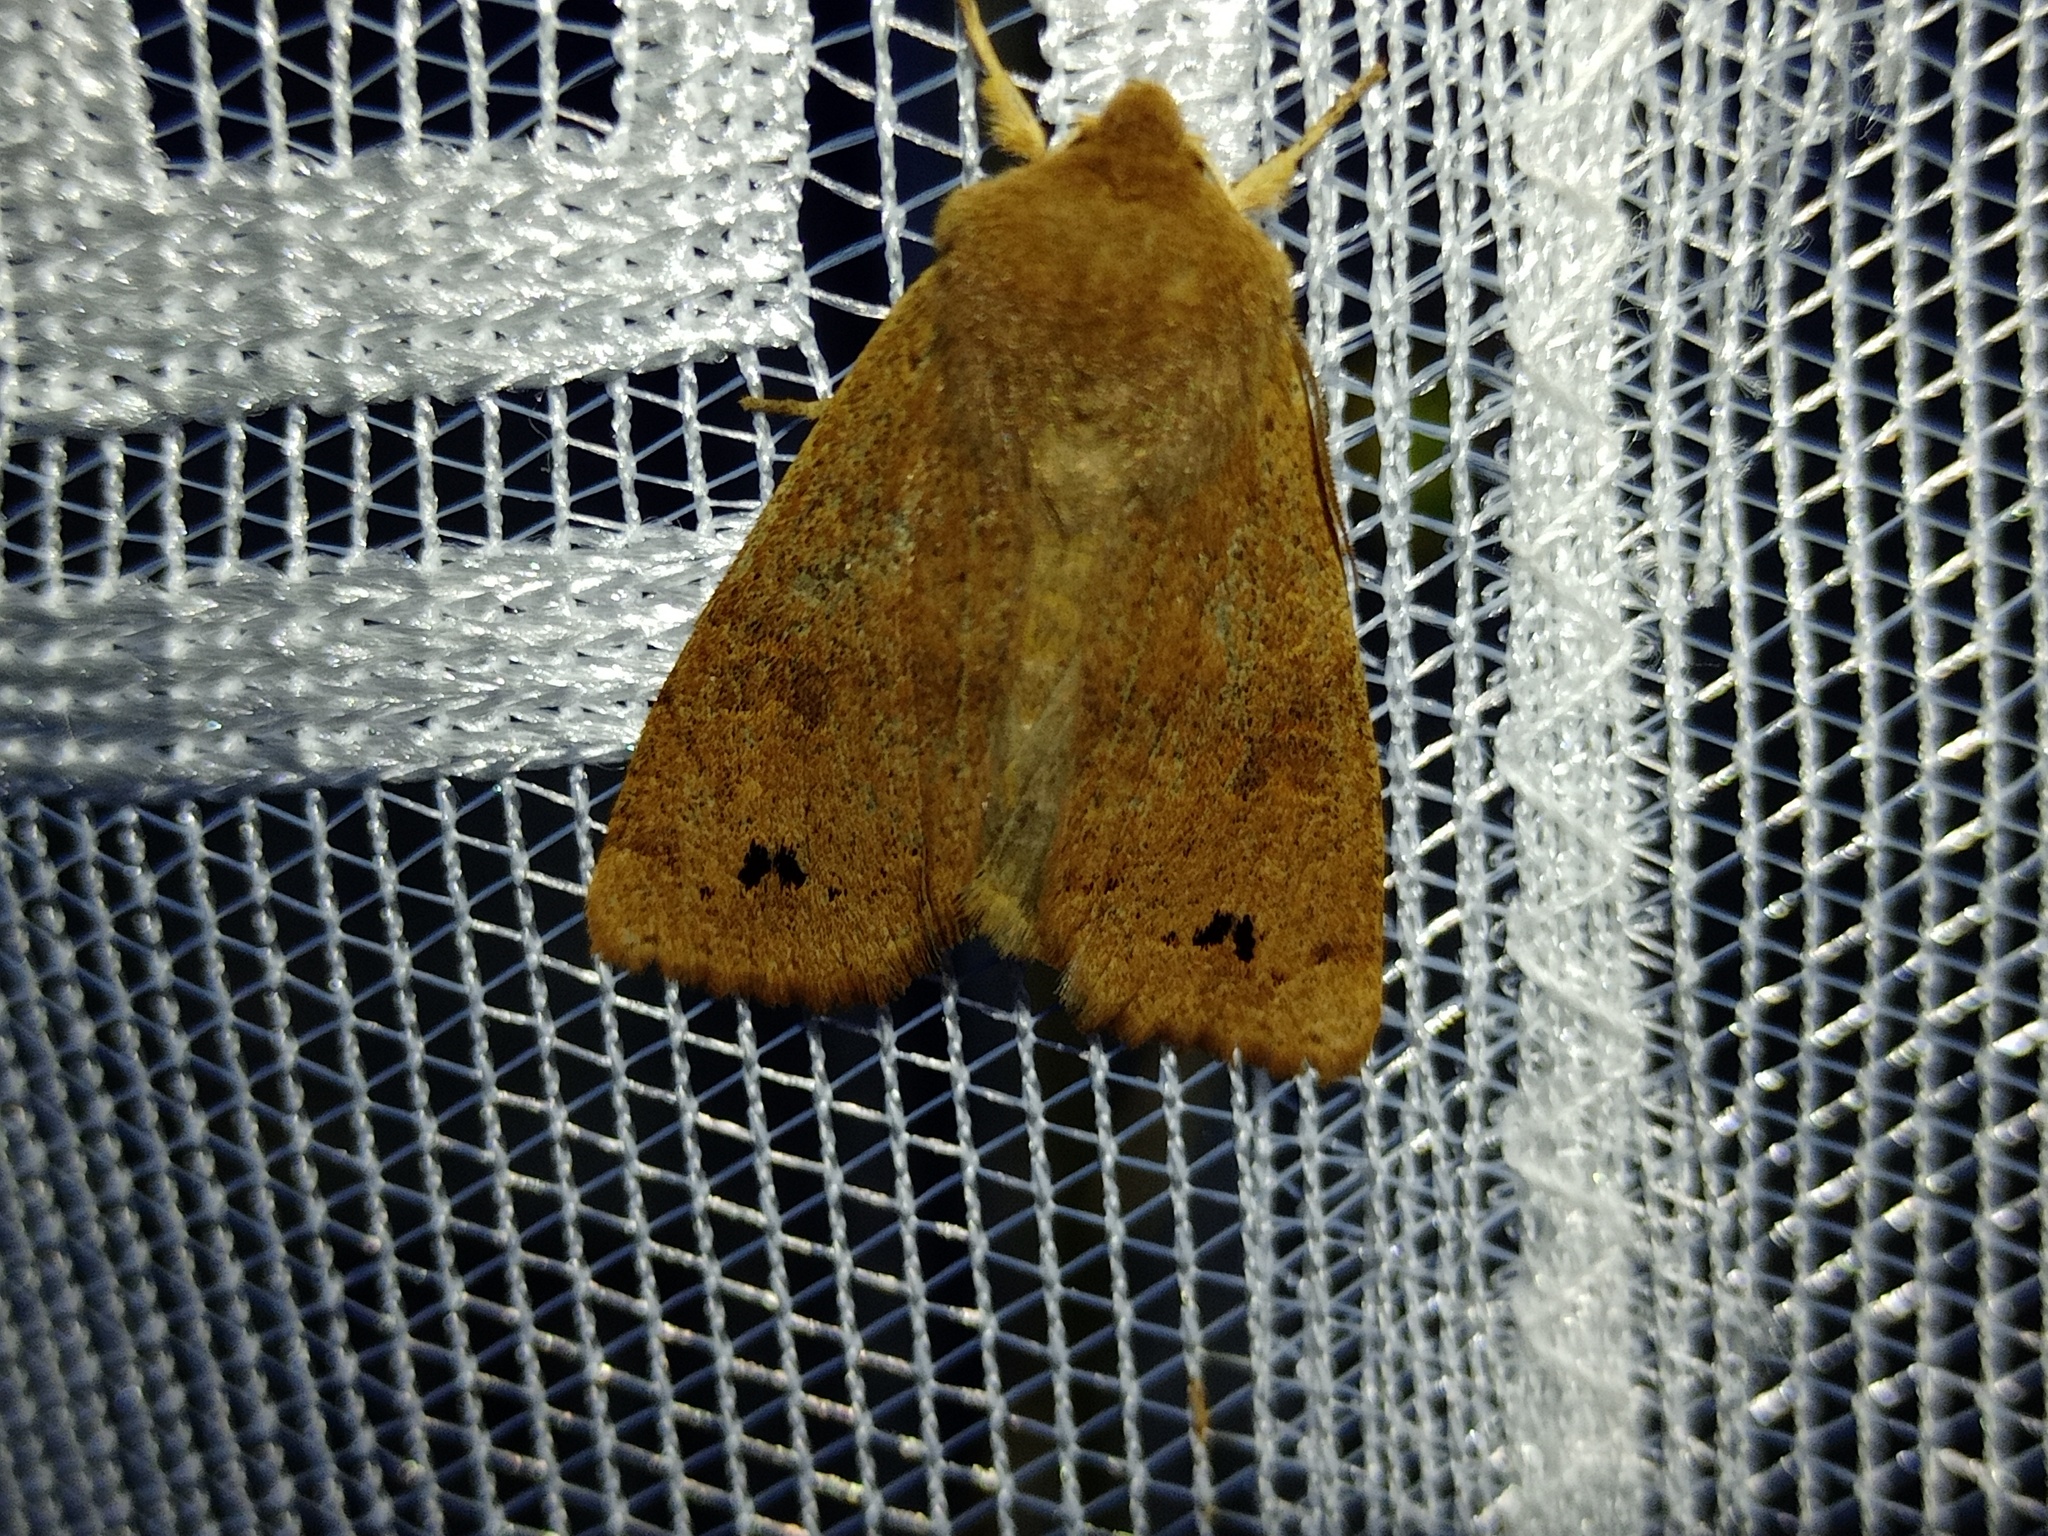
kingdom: Animalia
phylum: Arthropoda
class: Insecta
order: Lepidoptera
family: Noctuidae
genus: Anorthoa
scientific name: Anorthoa munda
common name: Twin-spotted quaker
